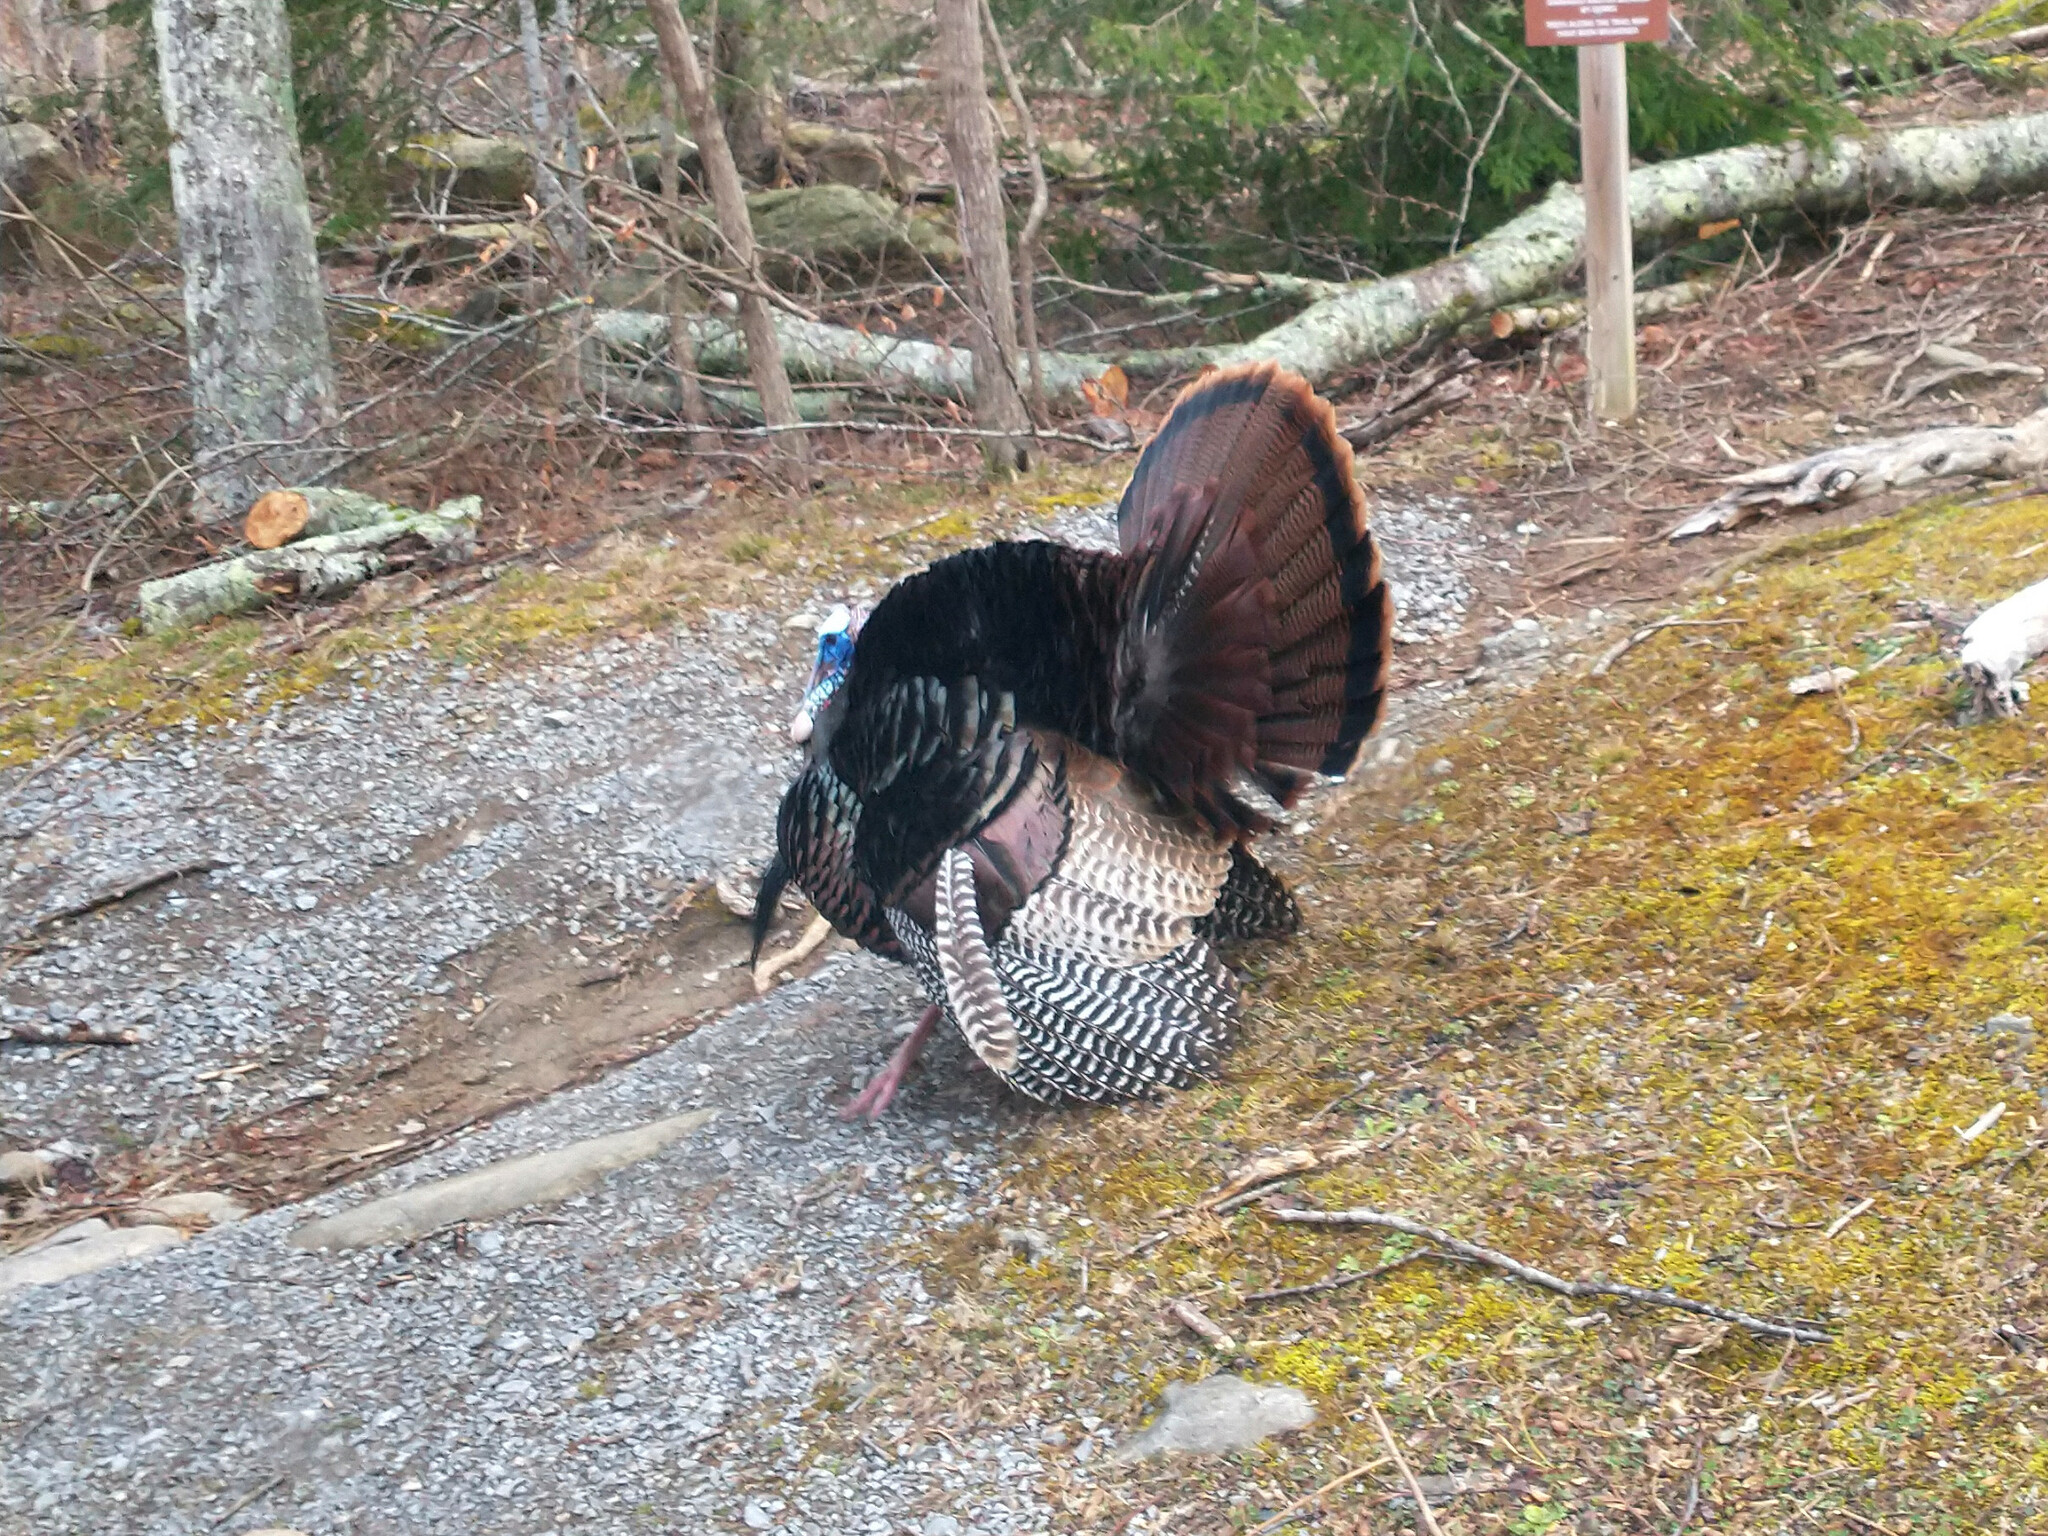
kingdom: Animalia
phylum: Chordata
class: Aves
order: Galliformes
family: Phasianidae
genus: Meleagris
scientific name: Meleagris gallopavo
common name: Wild turkey
